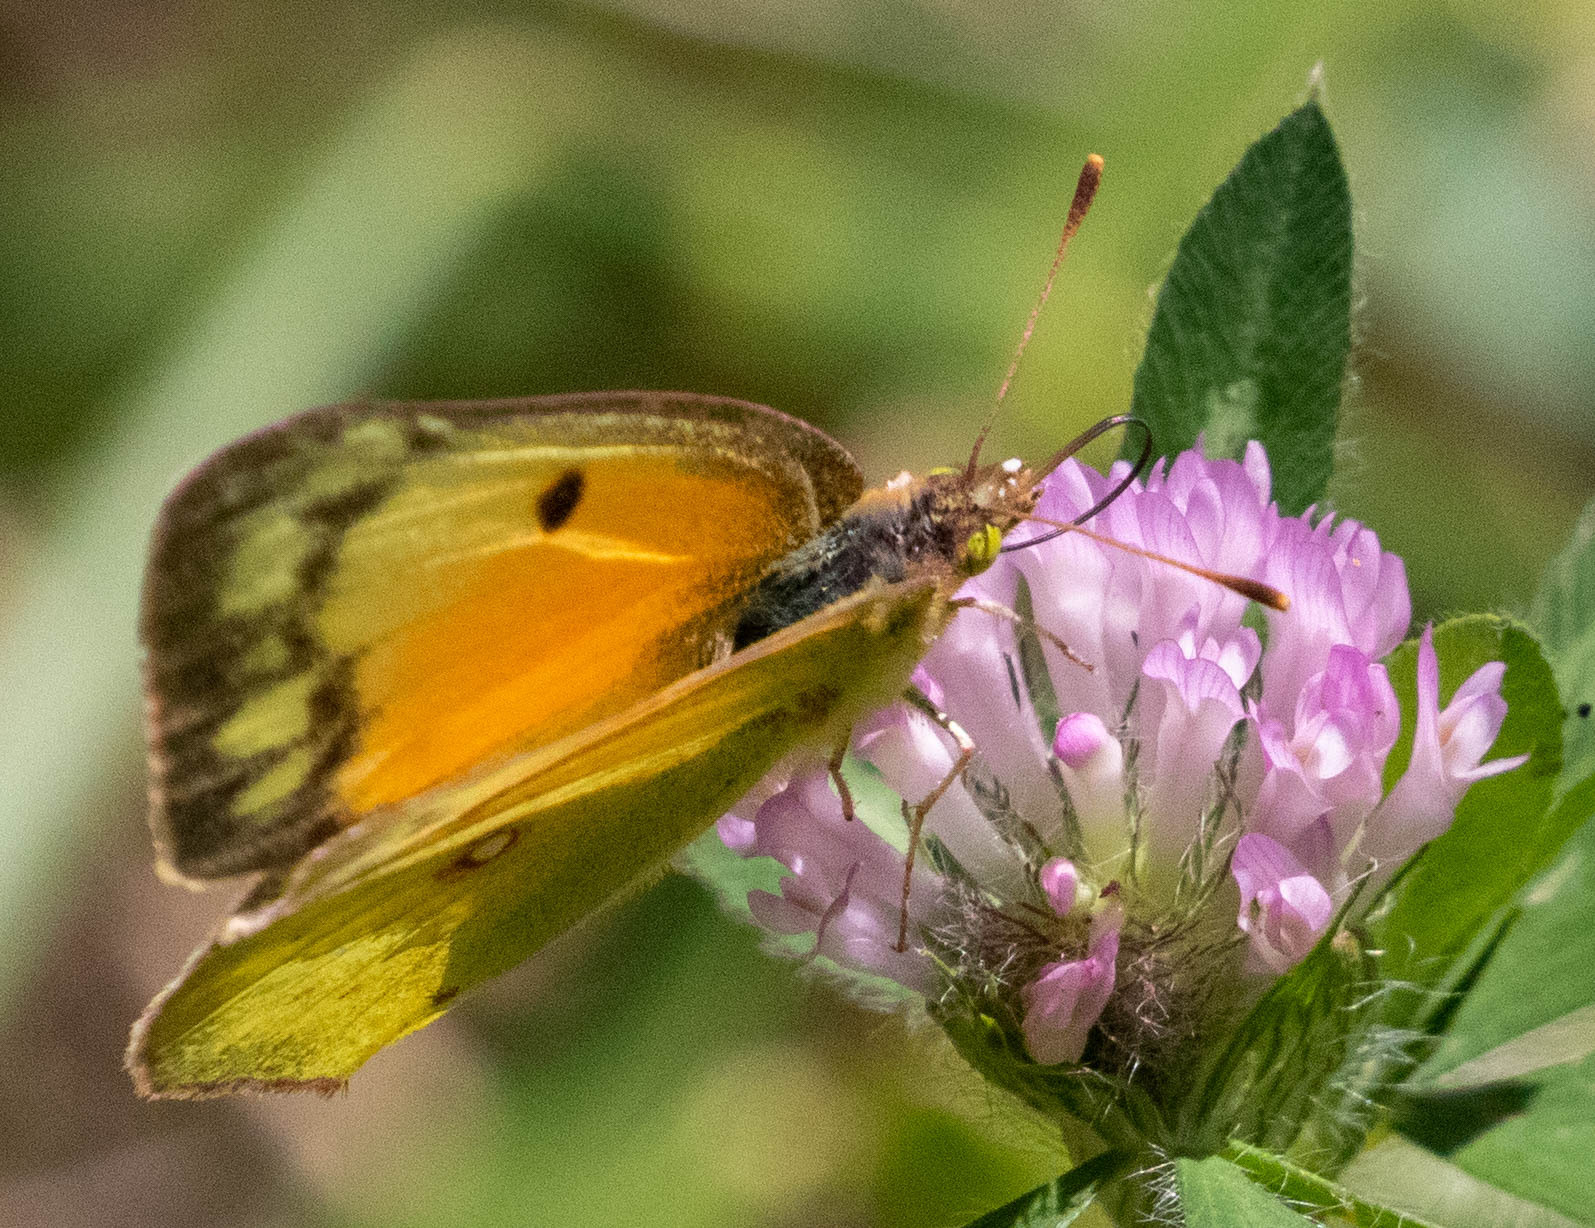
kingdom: Animalia
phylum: Arthropoda
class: Insecta
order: Lepidoptera
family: Pieridae
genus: Colias
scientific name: Colias eurytheme
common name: Alfalfa butterfly
